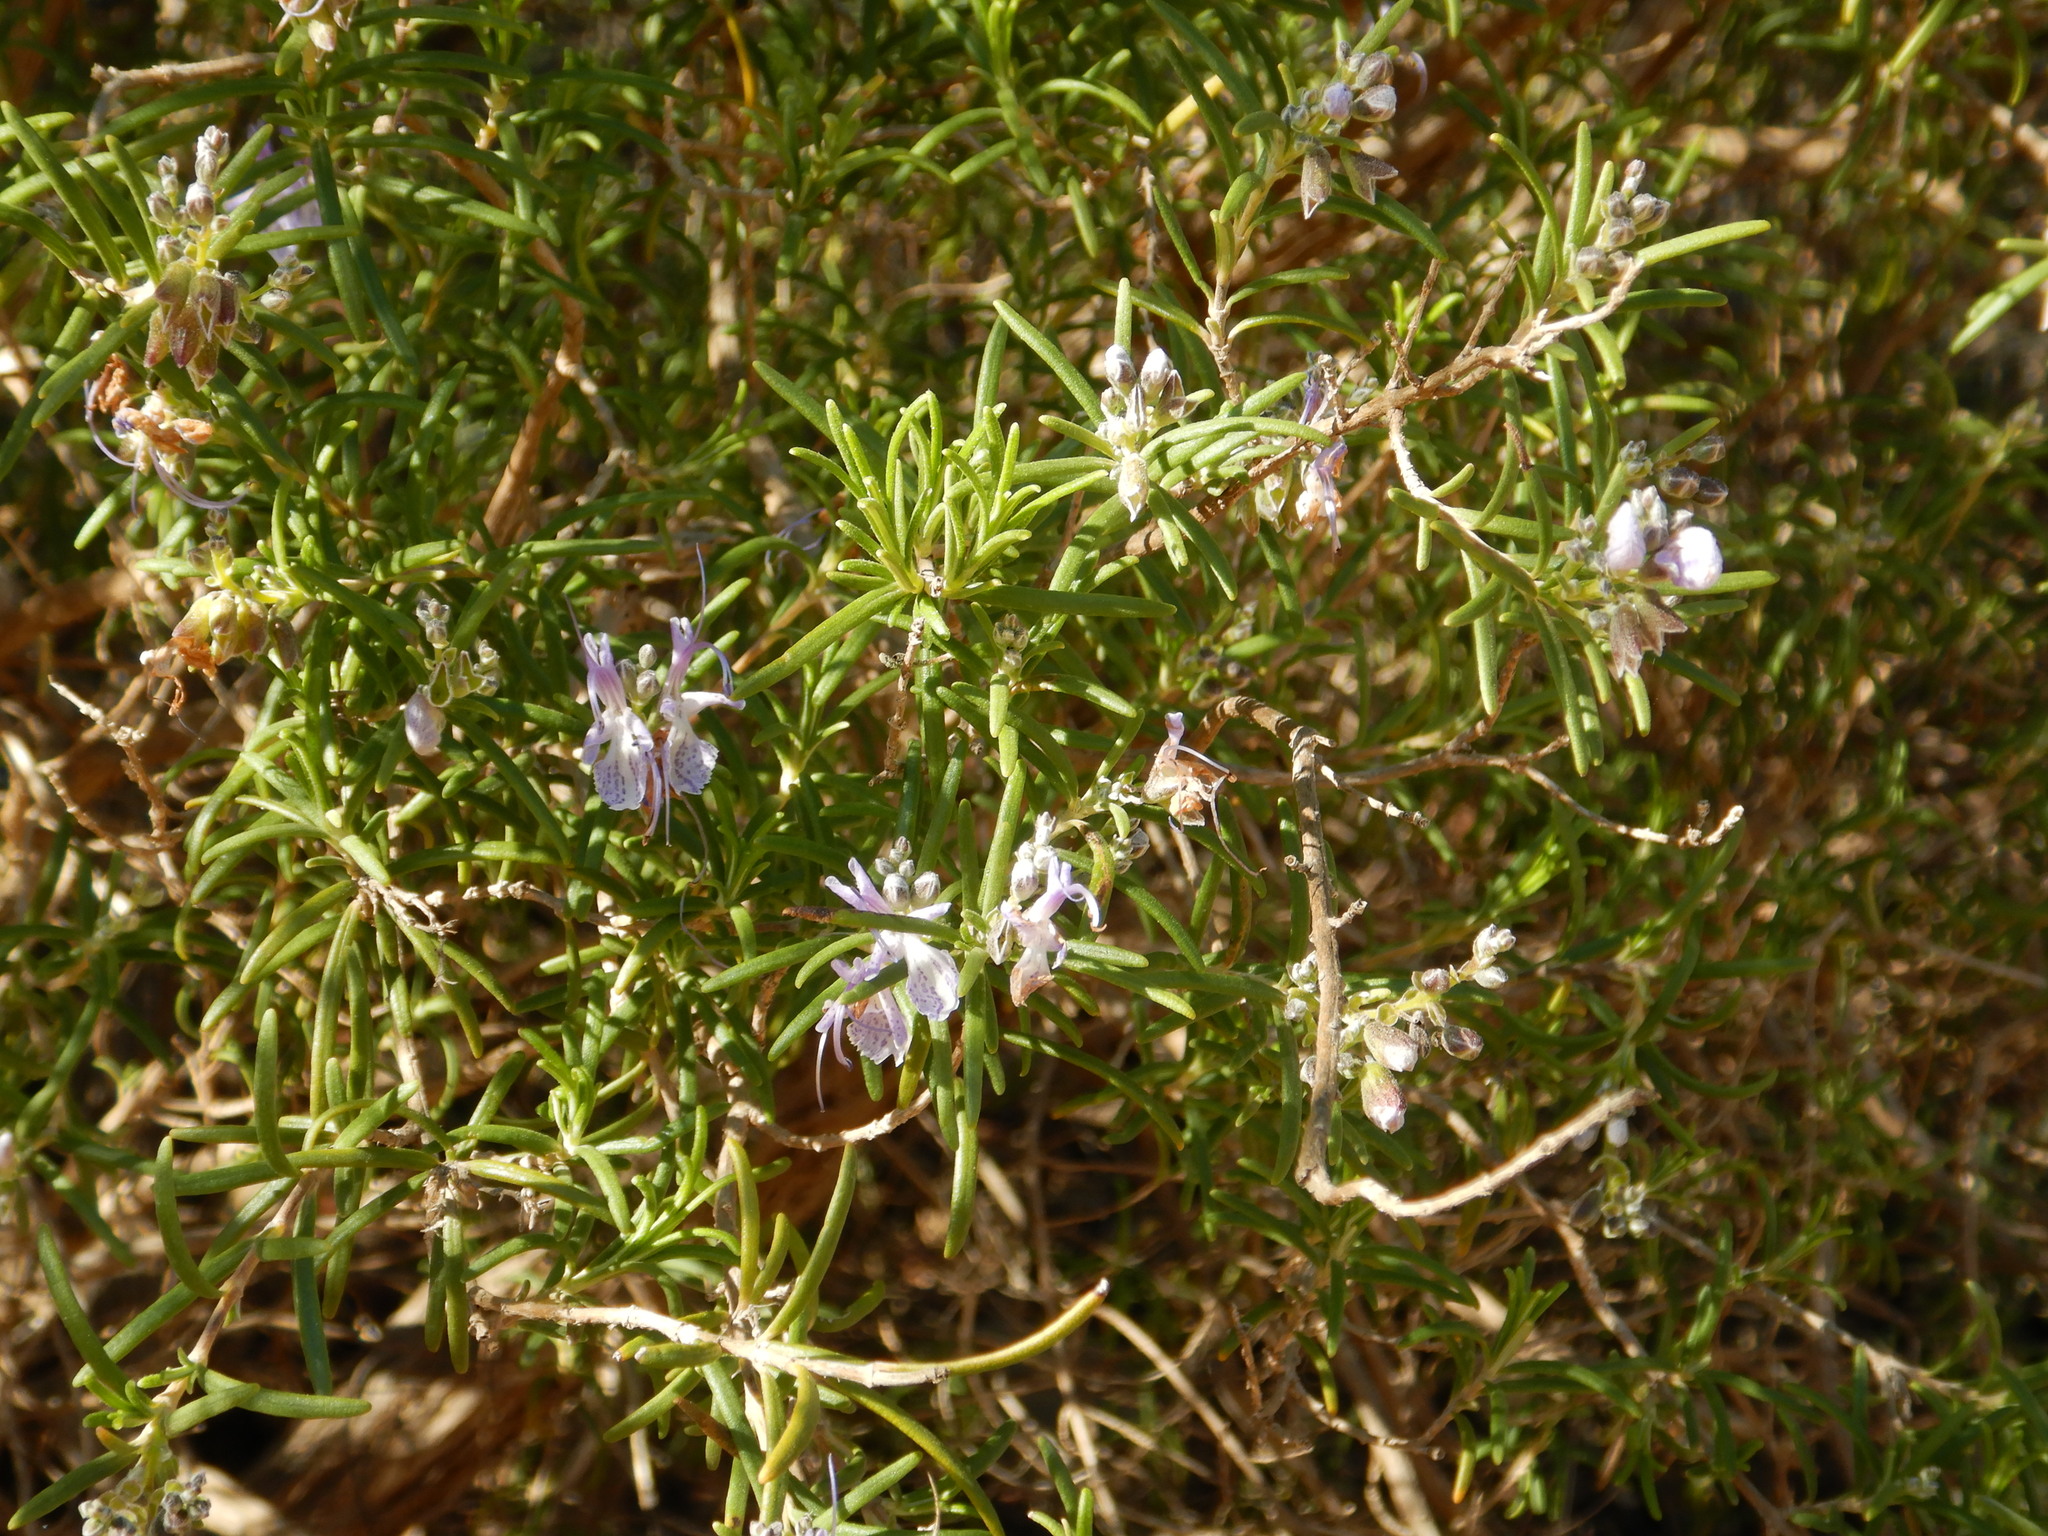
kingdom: Plantae
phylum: Tracheophyta
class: Magnoliopsida
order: Lamiales
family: Lamiaceae
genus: Salvia
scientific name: Salvia rosmarinus
